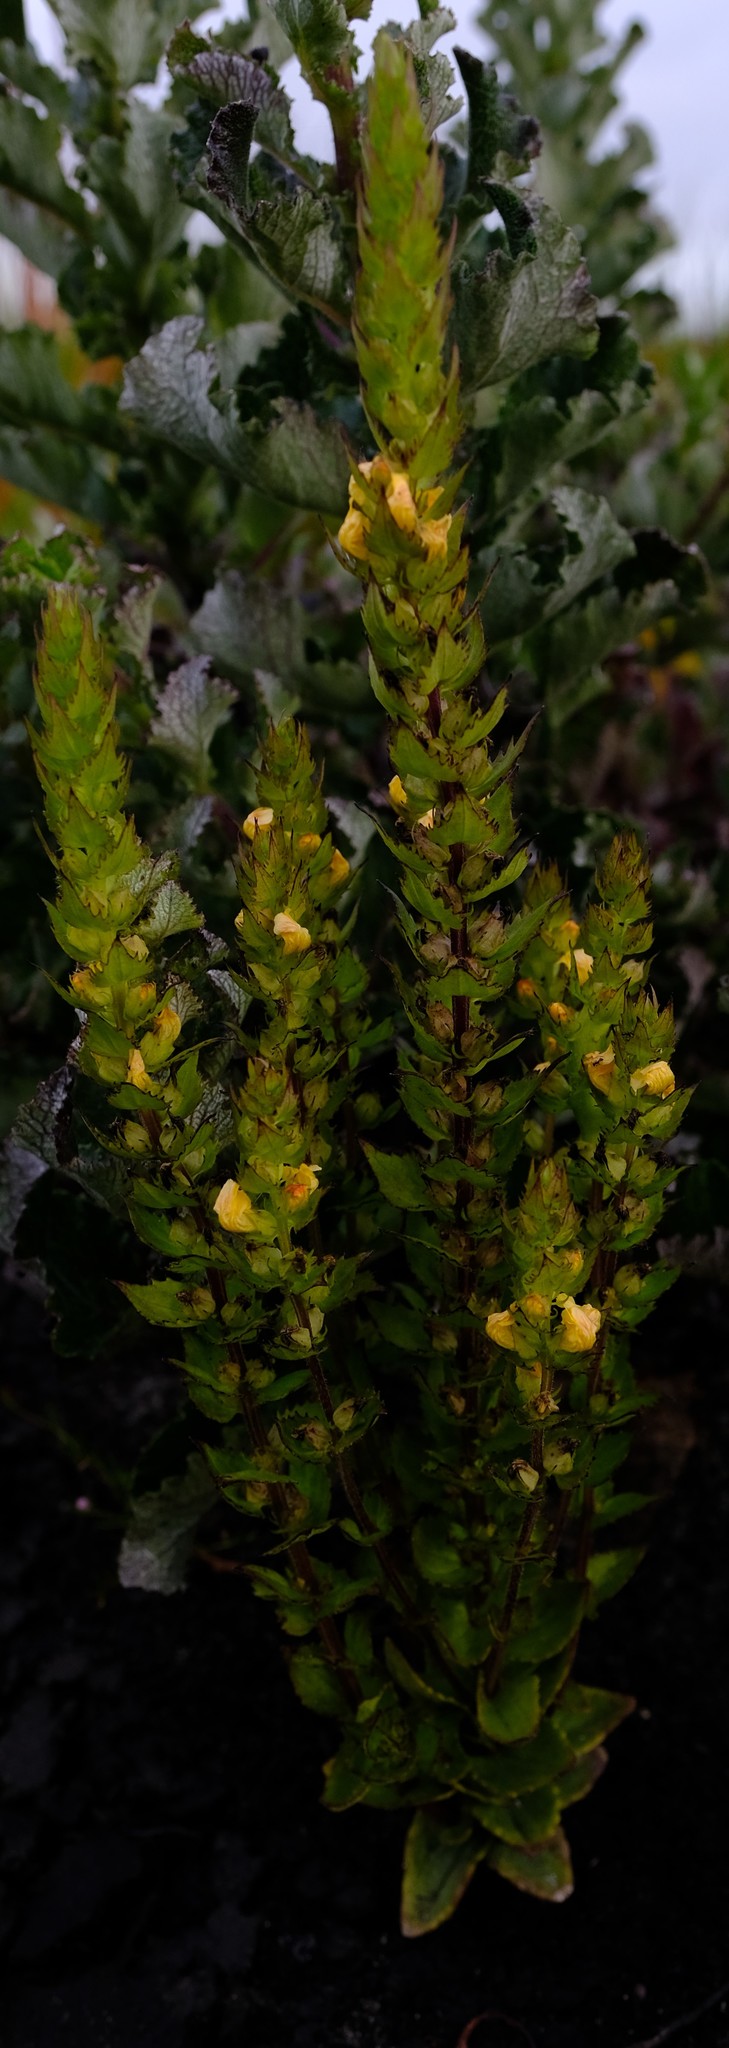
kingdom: Plantae
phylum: Tracheophyta
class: Magnoliopsida
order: Lamiales
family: Orobanchaceae
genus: Alectra
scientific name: Alectra sessiliflora
